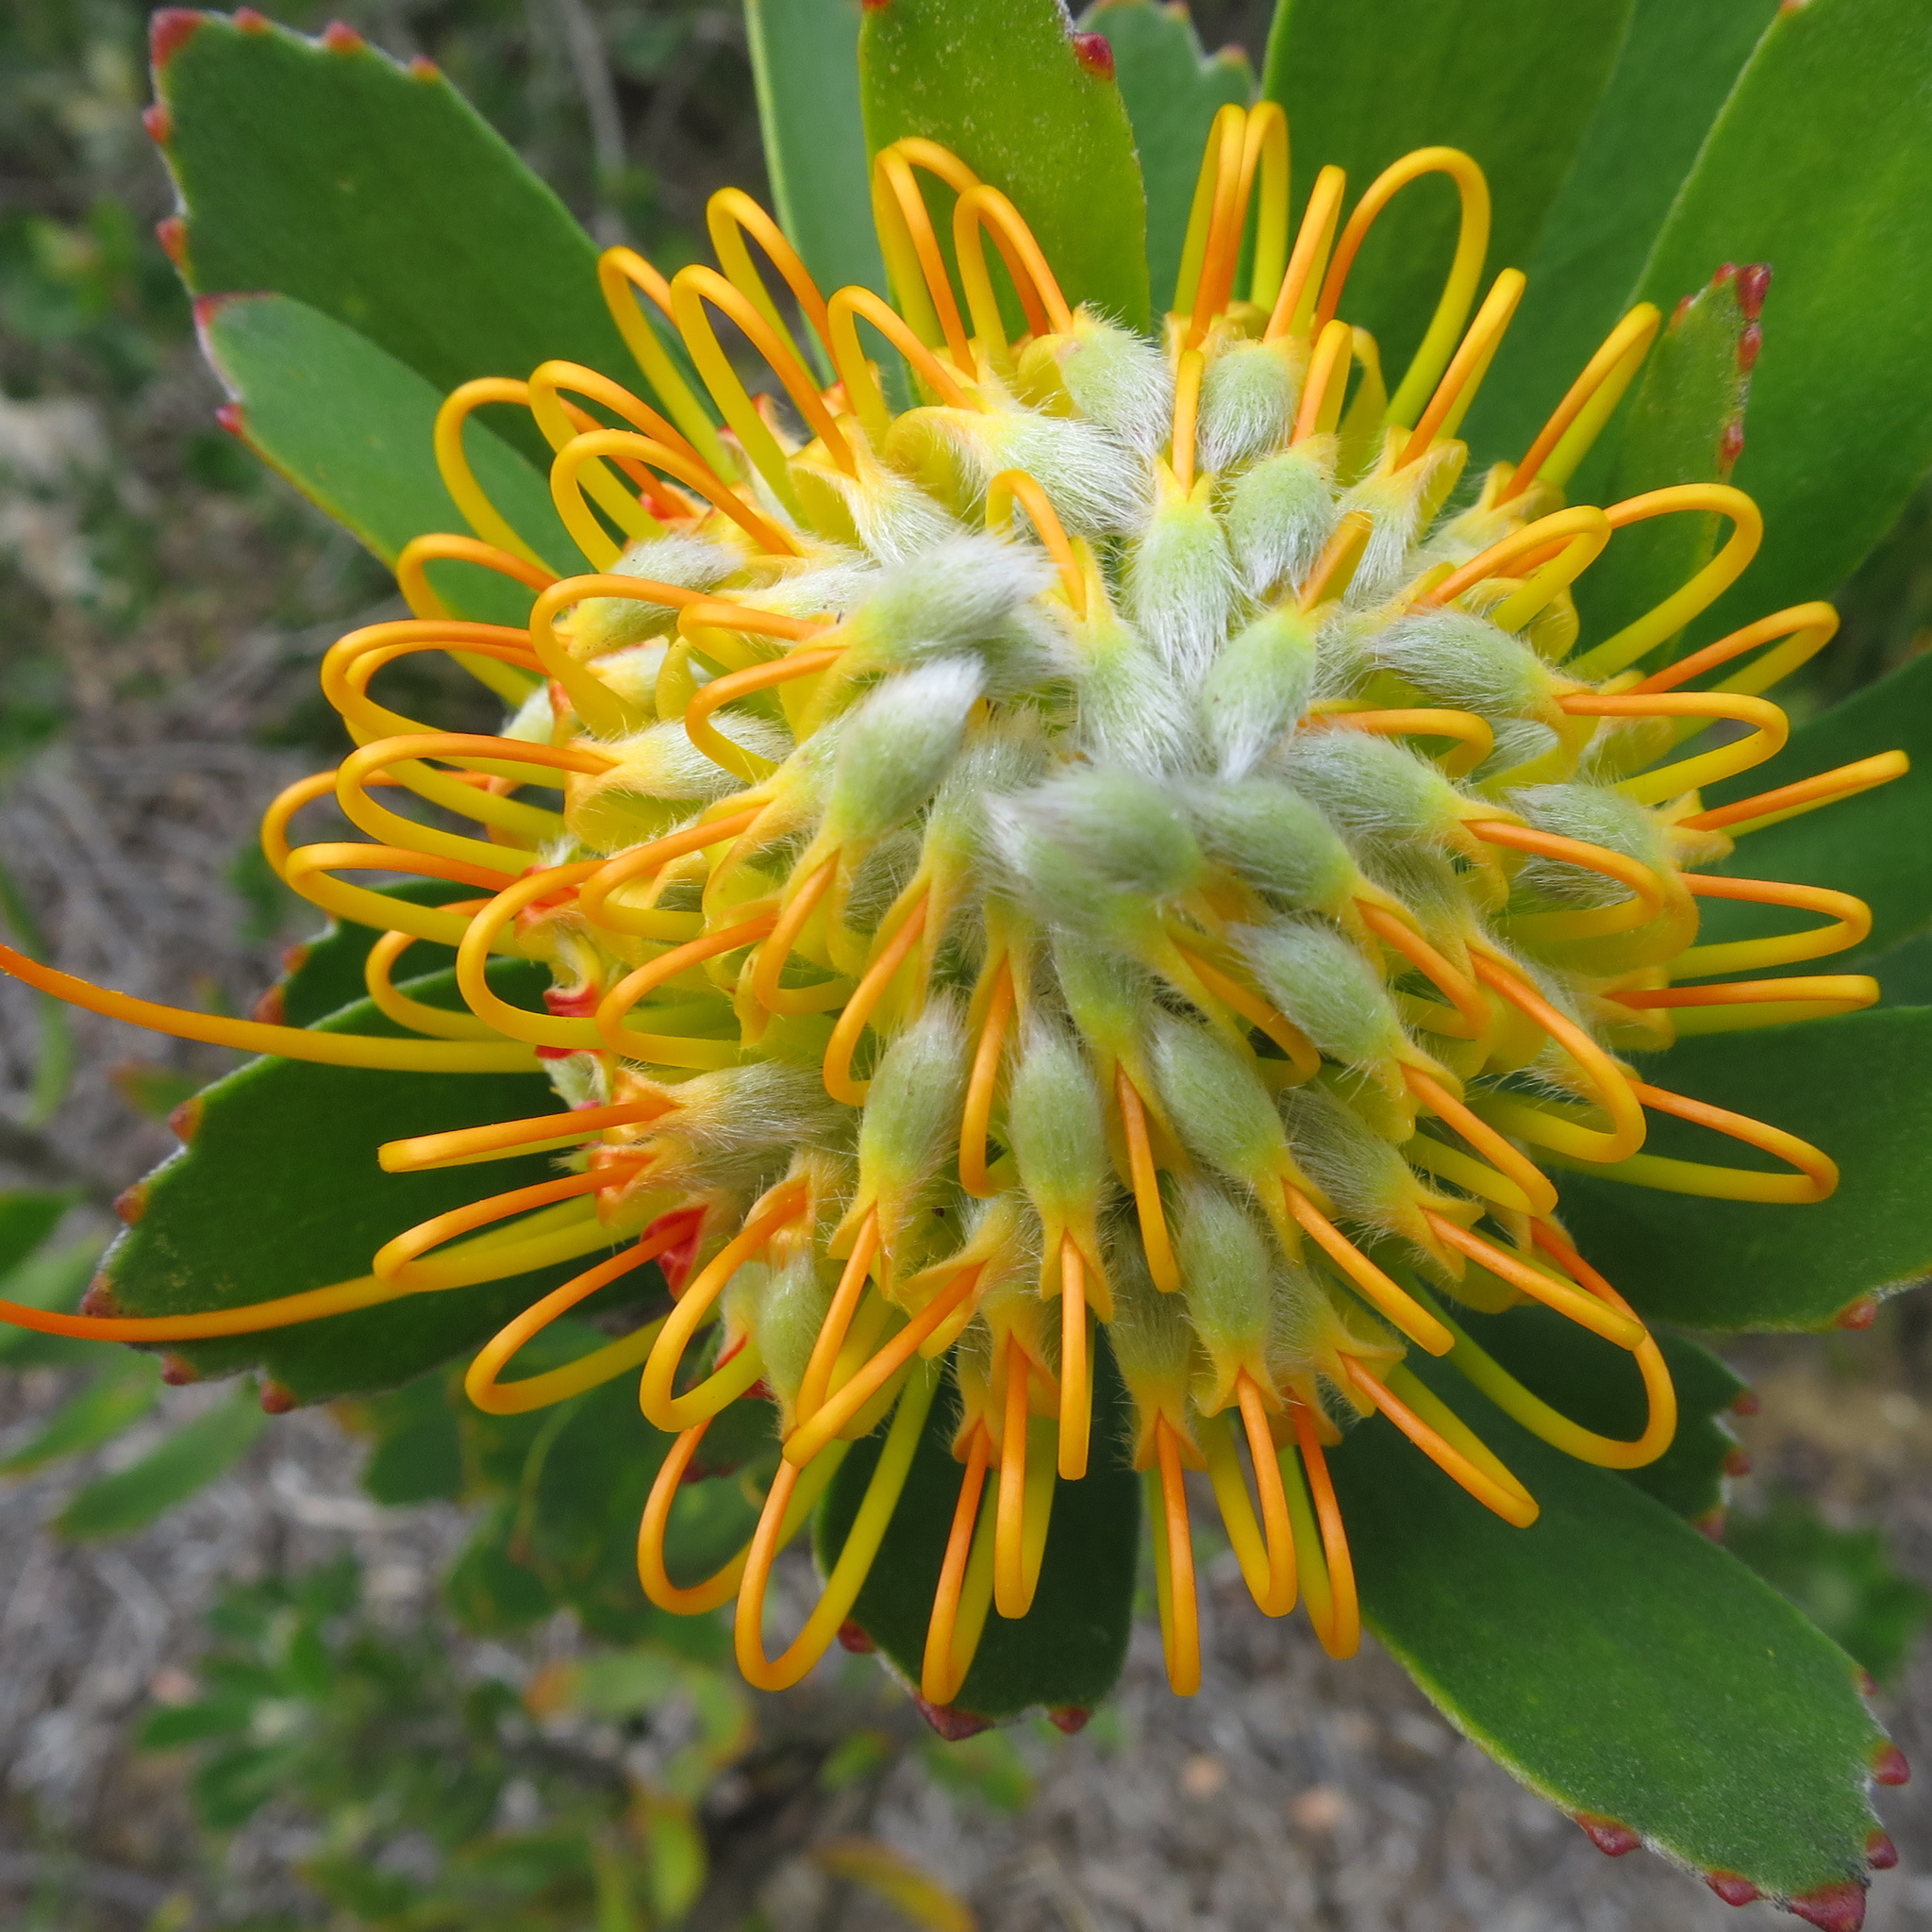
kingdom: Plantae
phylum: Tracheophyta
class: Magnoliopsida
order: Proteales
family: Proteaceae
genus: Leucospermum
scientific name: Leucospermum praecox
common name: Mossel bay pincushion
